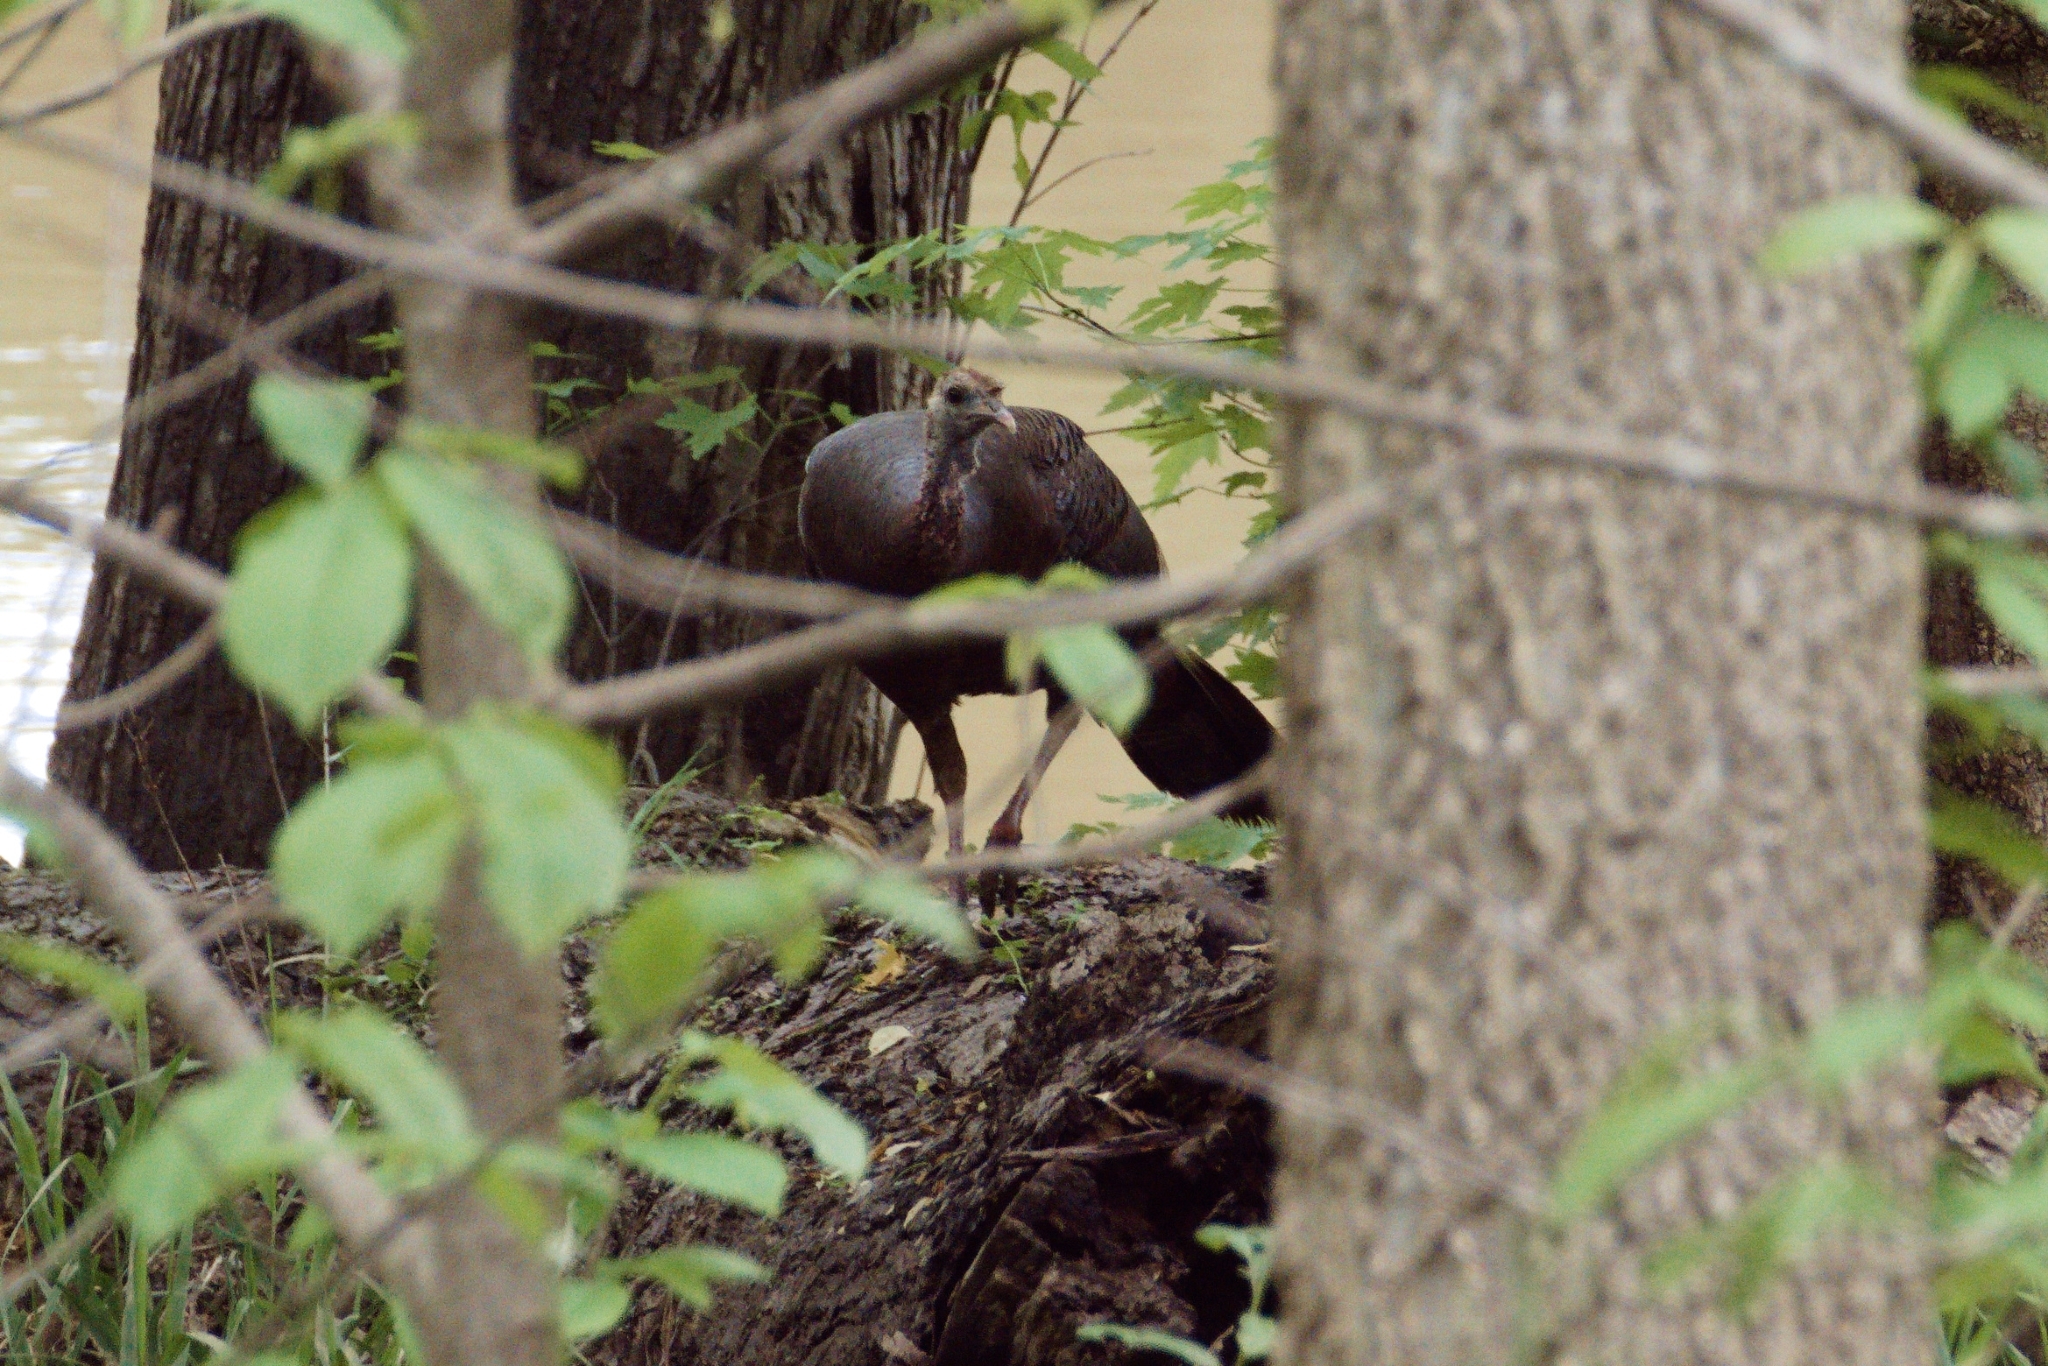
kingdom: Animalia
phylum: Chordata
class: Aves
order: Galliformes
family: Phasianidae
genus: Meleagris
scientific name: Meleagris gallopavo
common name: Wild turkey
